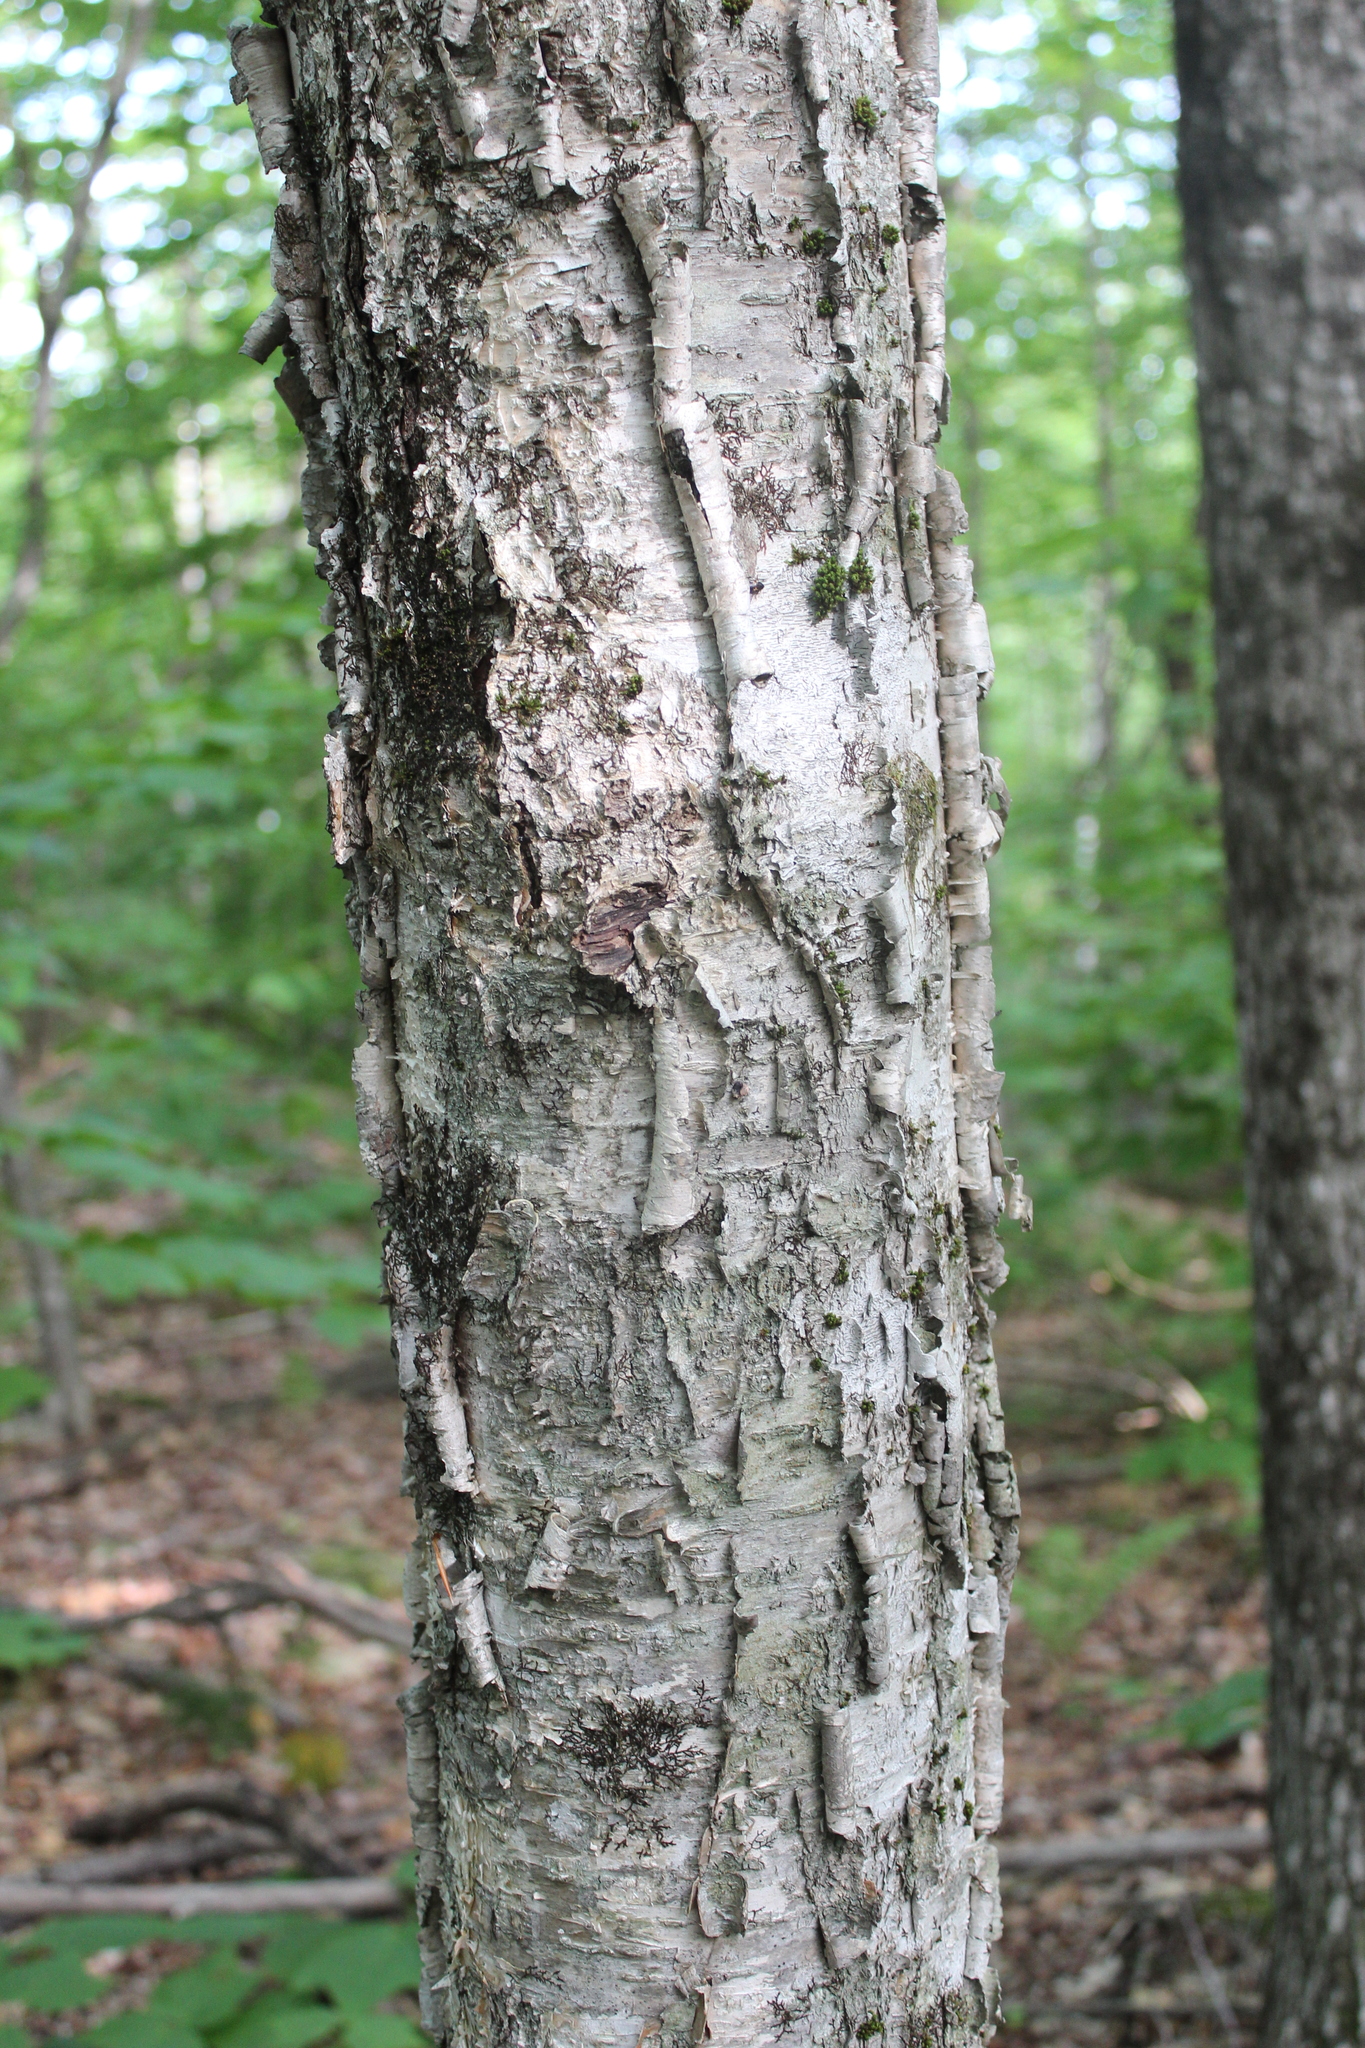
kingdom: Plantae
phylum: Tracheophyta
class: Magnoliopsida
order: Fagales
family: Betulaceae
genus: Betula
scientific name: Betula alleghaniensis
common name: Yellow birch
